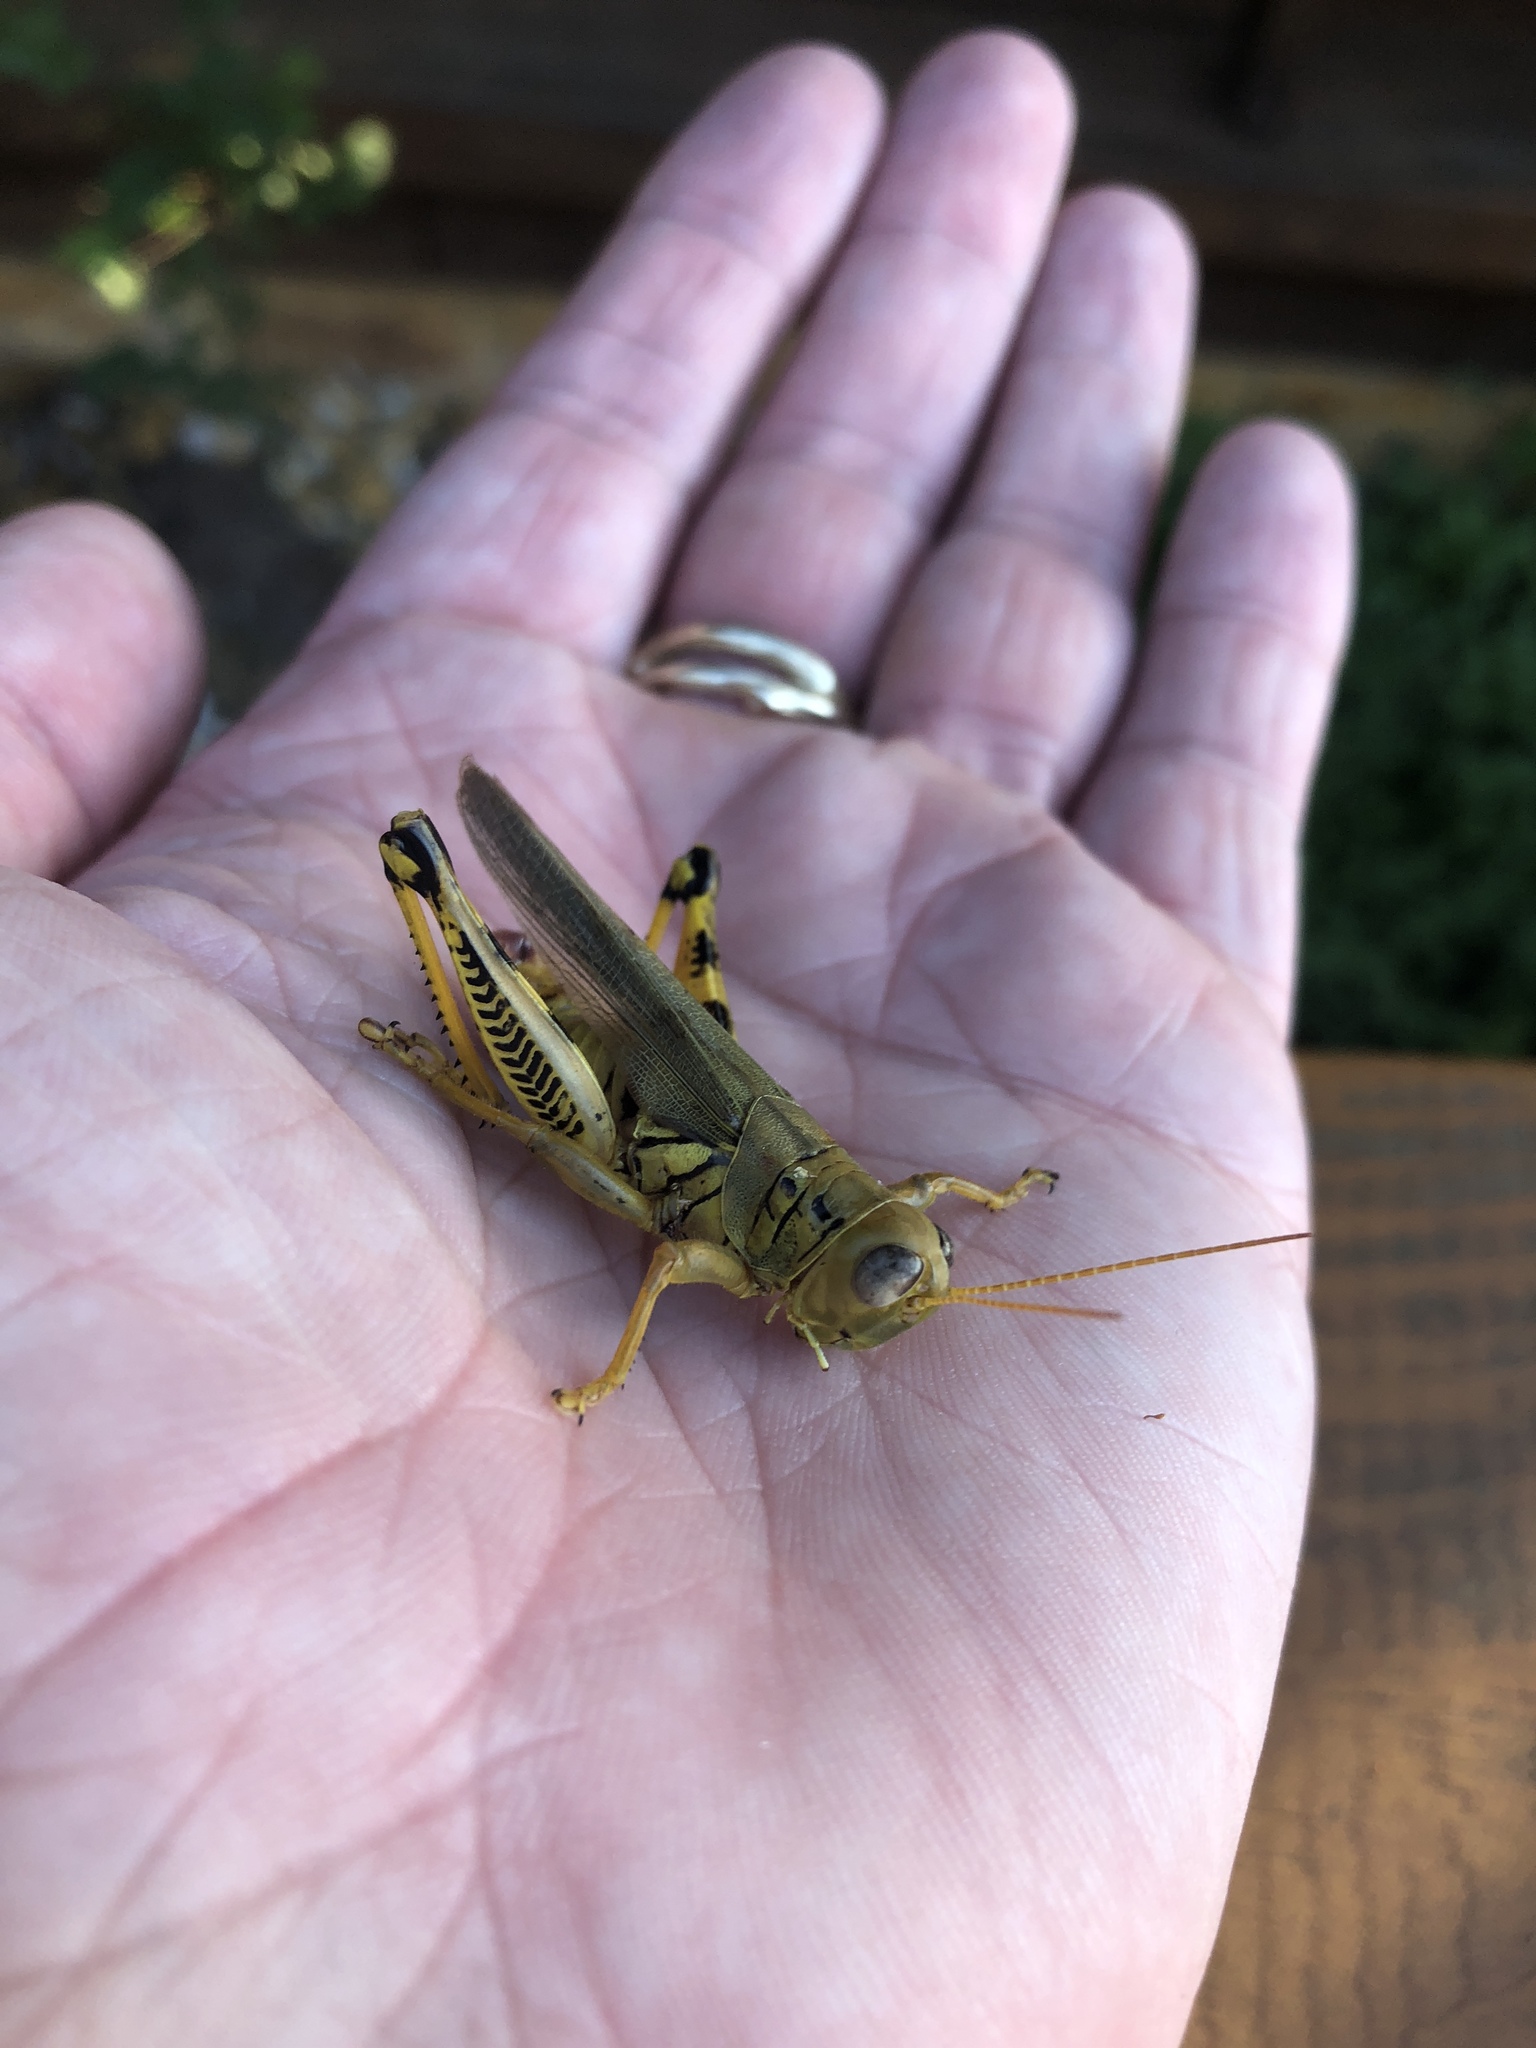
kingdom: Animalia
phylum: Arthropoda
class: Insecta
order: Orthoptera
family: Acrididae
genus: Melanoplus
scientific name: Melanoplus differentialis
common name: Differential grasshopper
